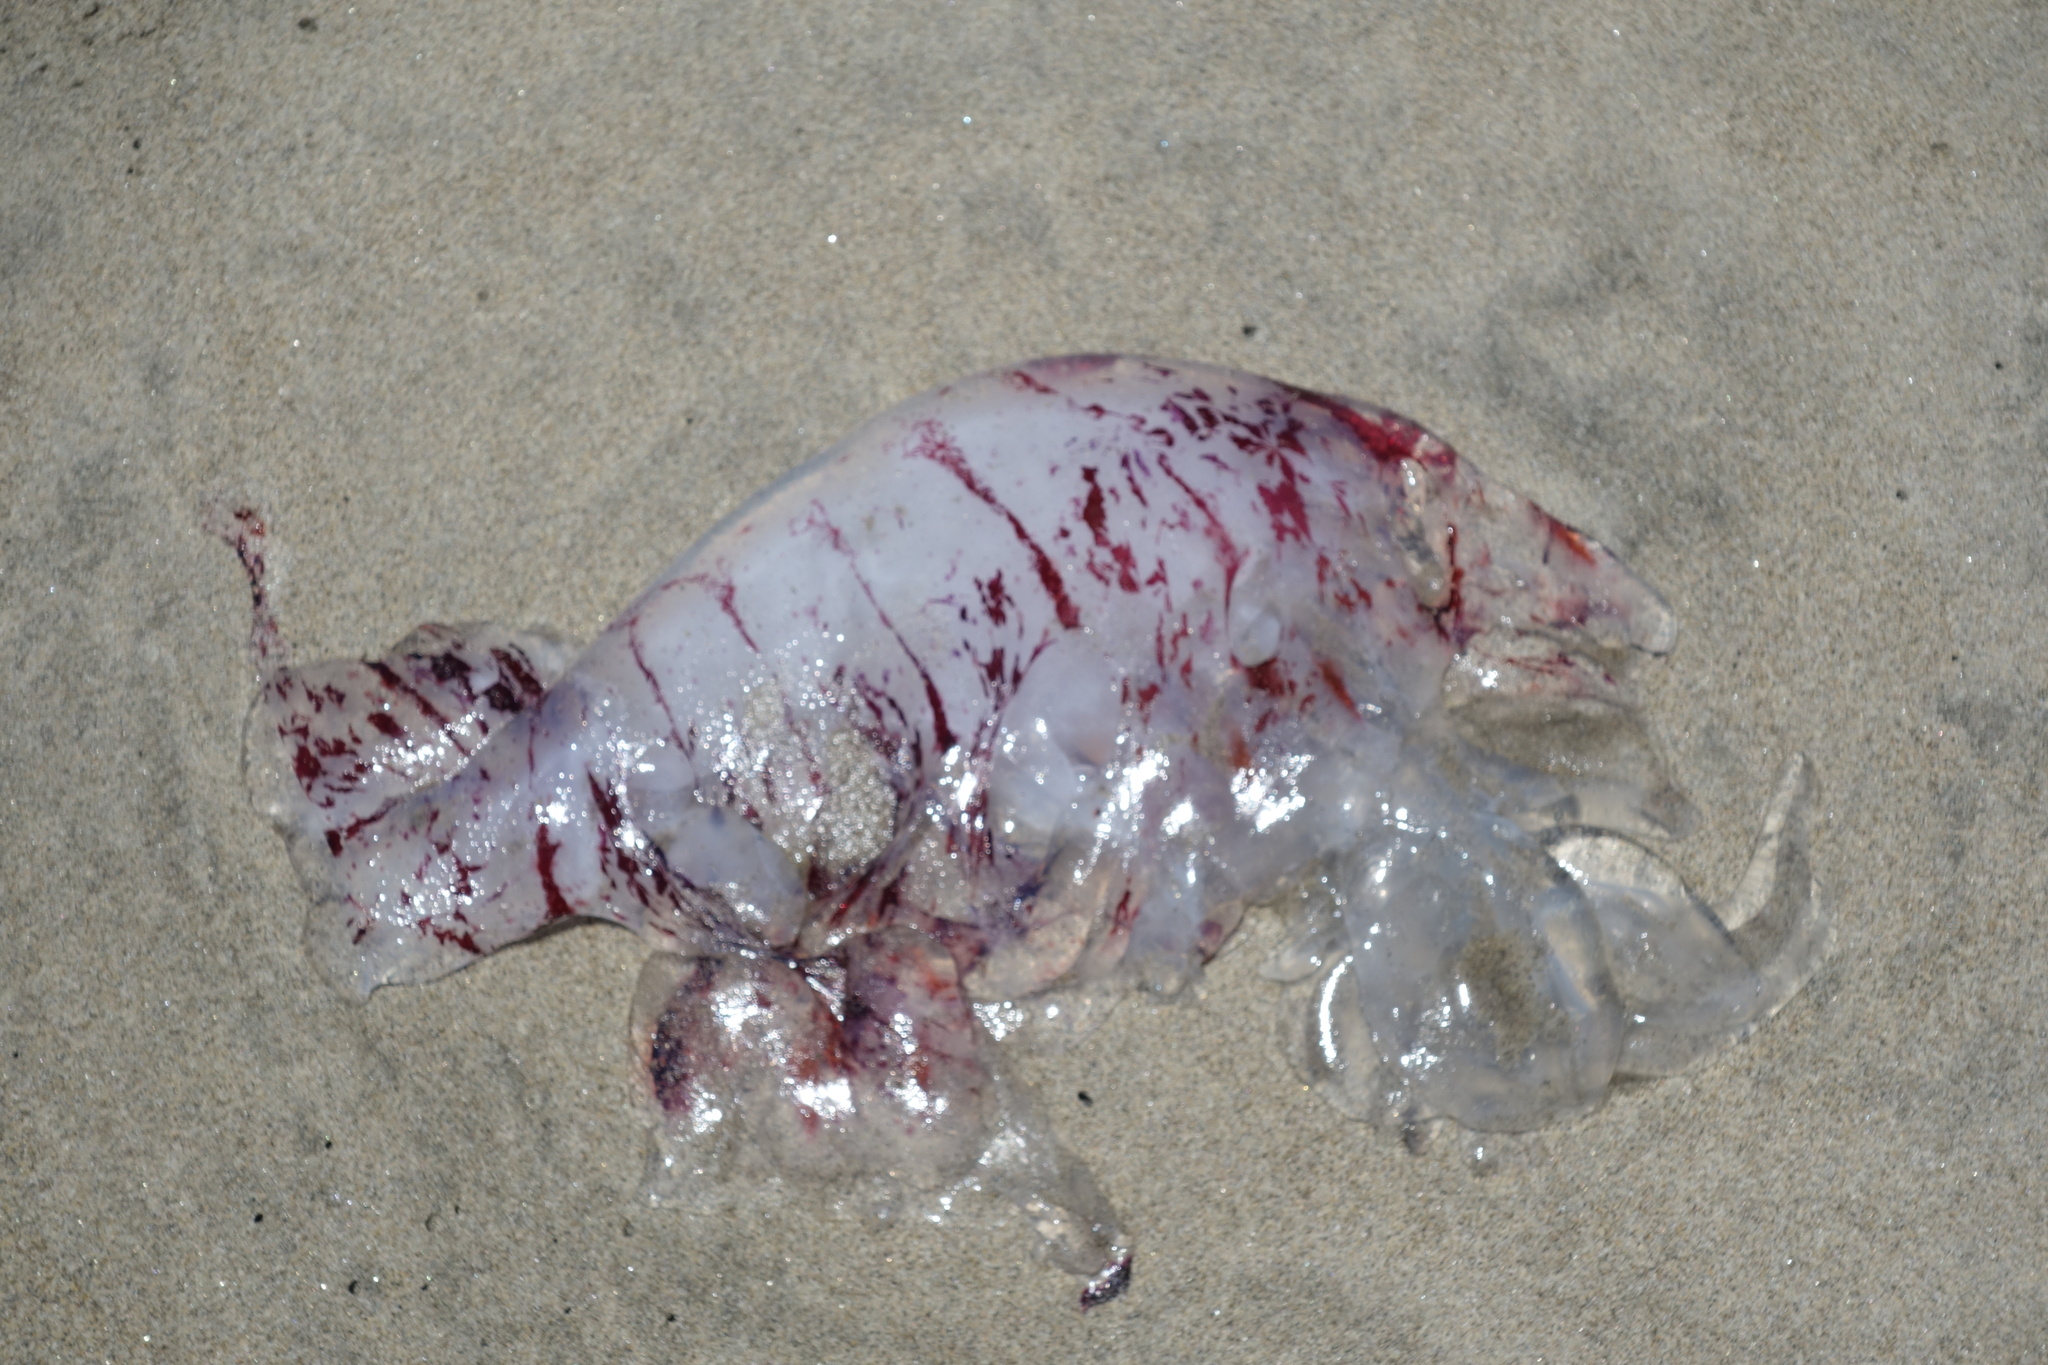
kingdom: Animalia
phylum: Cnidaria
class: Scyphozoa
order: Semaeostomeae
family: Pelagiidae
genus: Chrysaora
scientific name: Chrysaora colorata
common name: Purple-striped jellyfish
